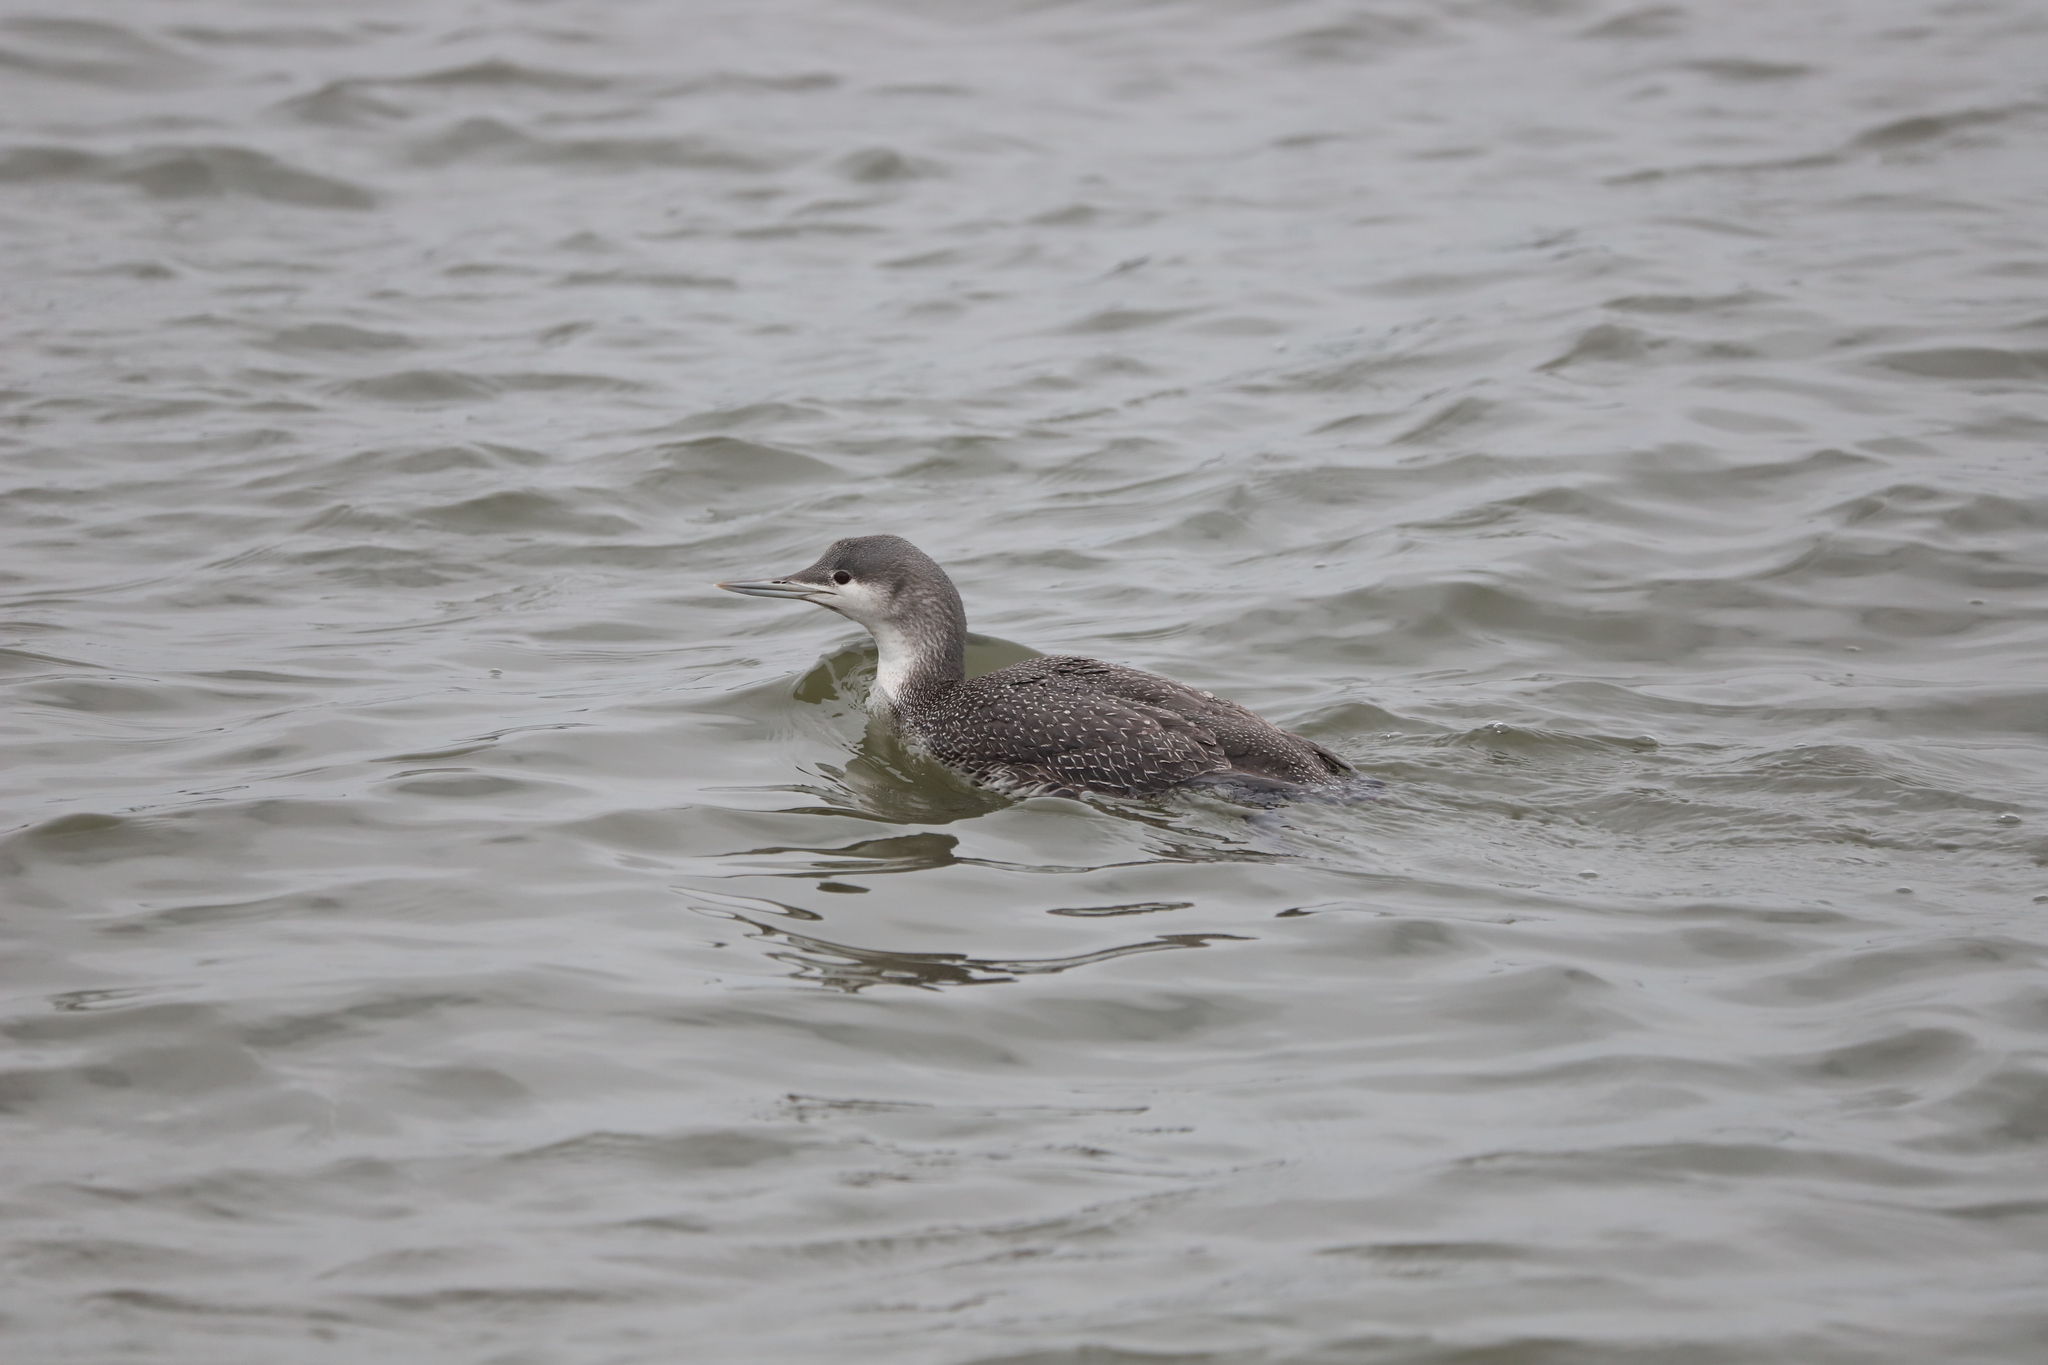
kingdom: Animalia
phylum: Chordata
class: Aves
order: Gaviiformes
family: Gaviidae
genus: Gavia
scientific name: Gavia stellata
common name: Red-throated loon
